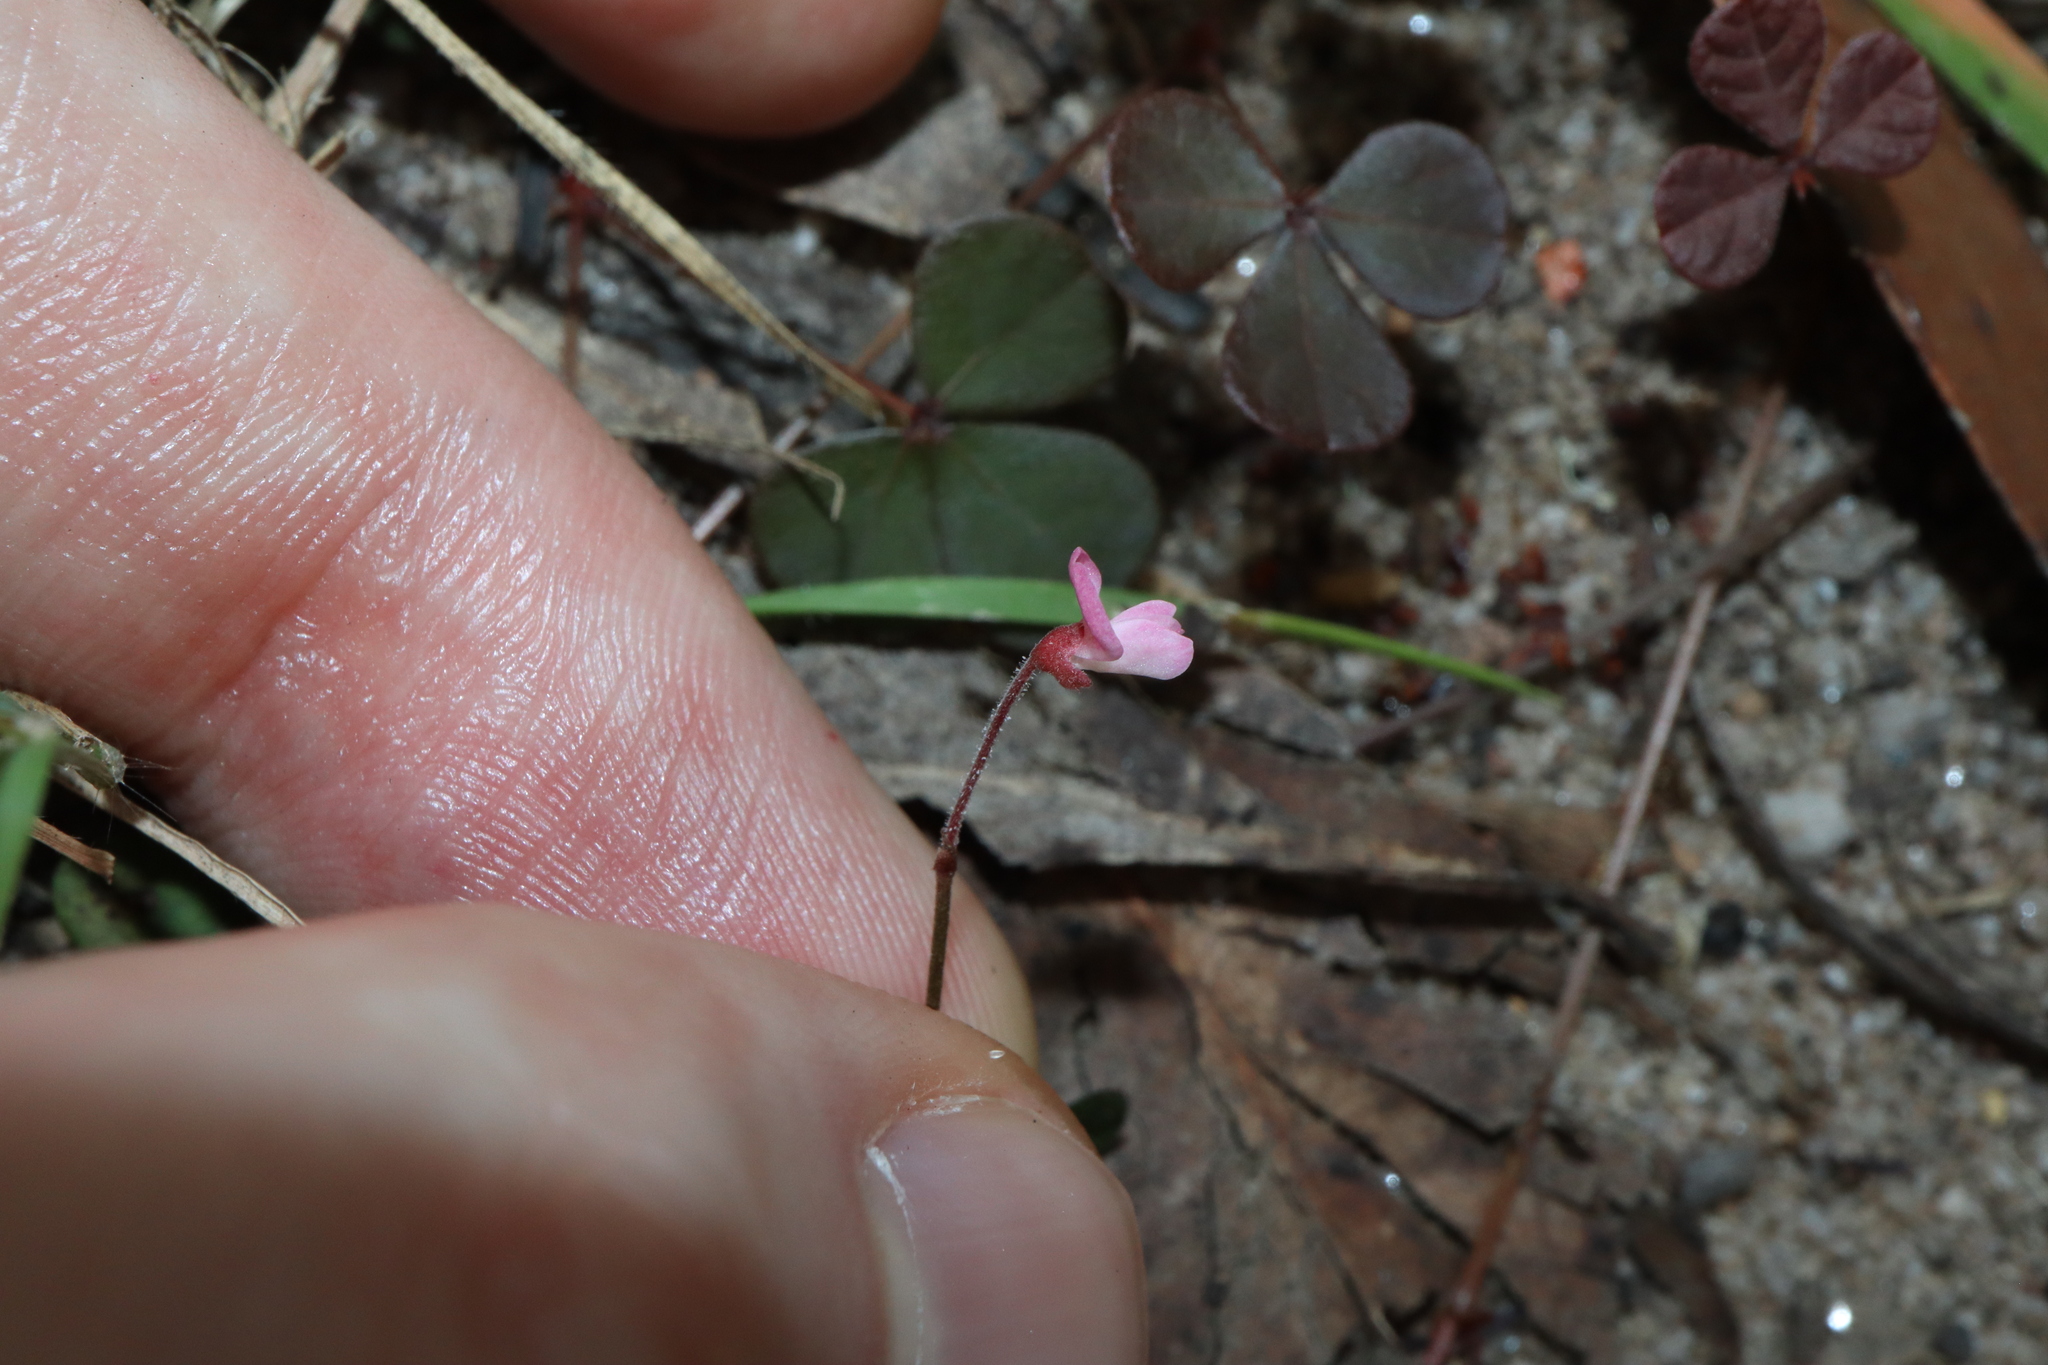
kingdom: Plantae
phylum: Tracheophyta
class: Magnoliopsida
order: Fabales
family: Fabaceae
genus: Pullenia
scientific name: Pullenia gunnii
